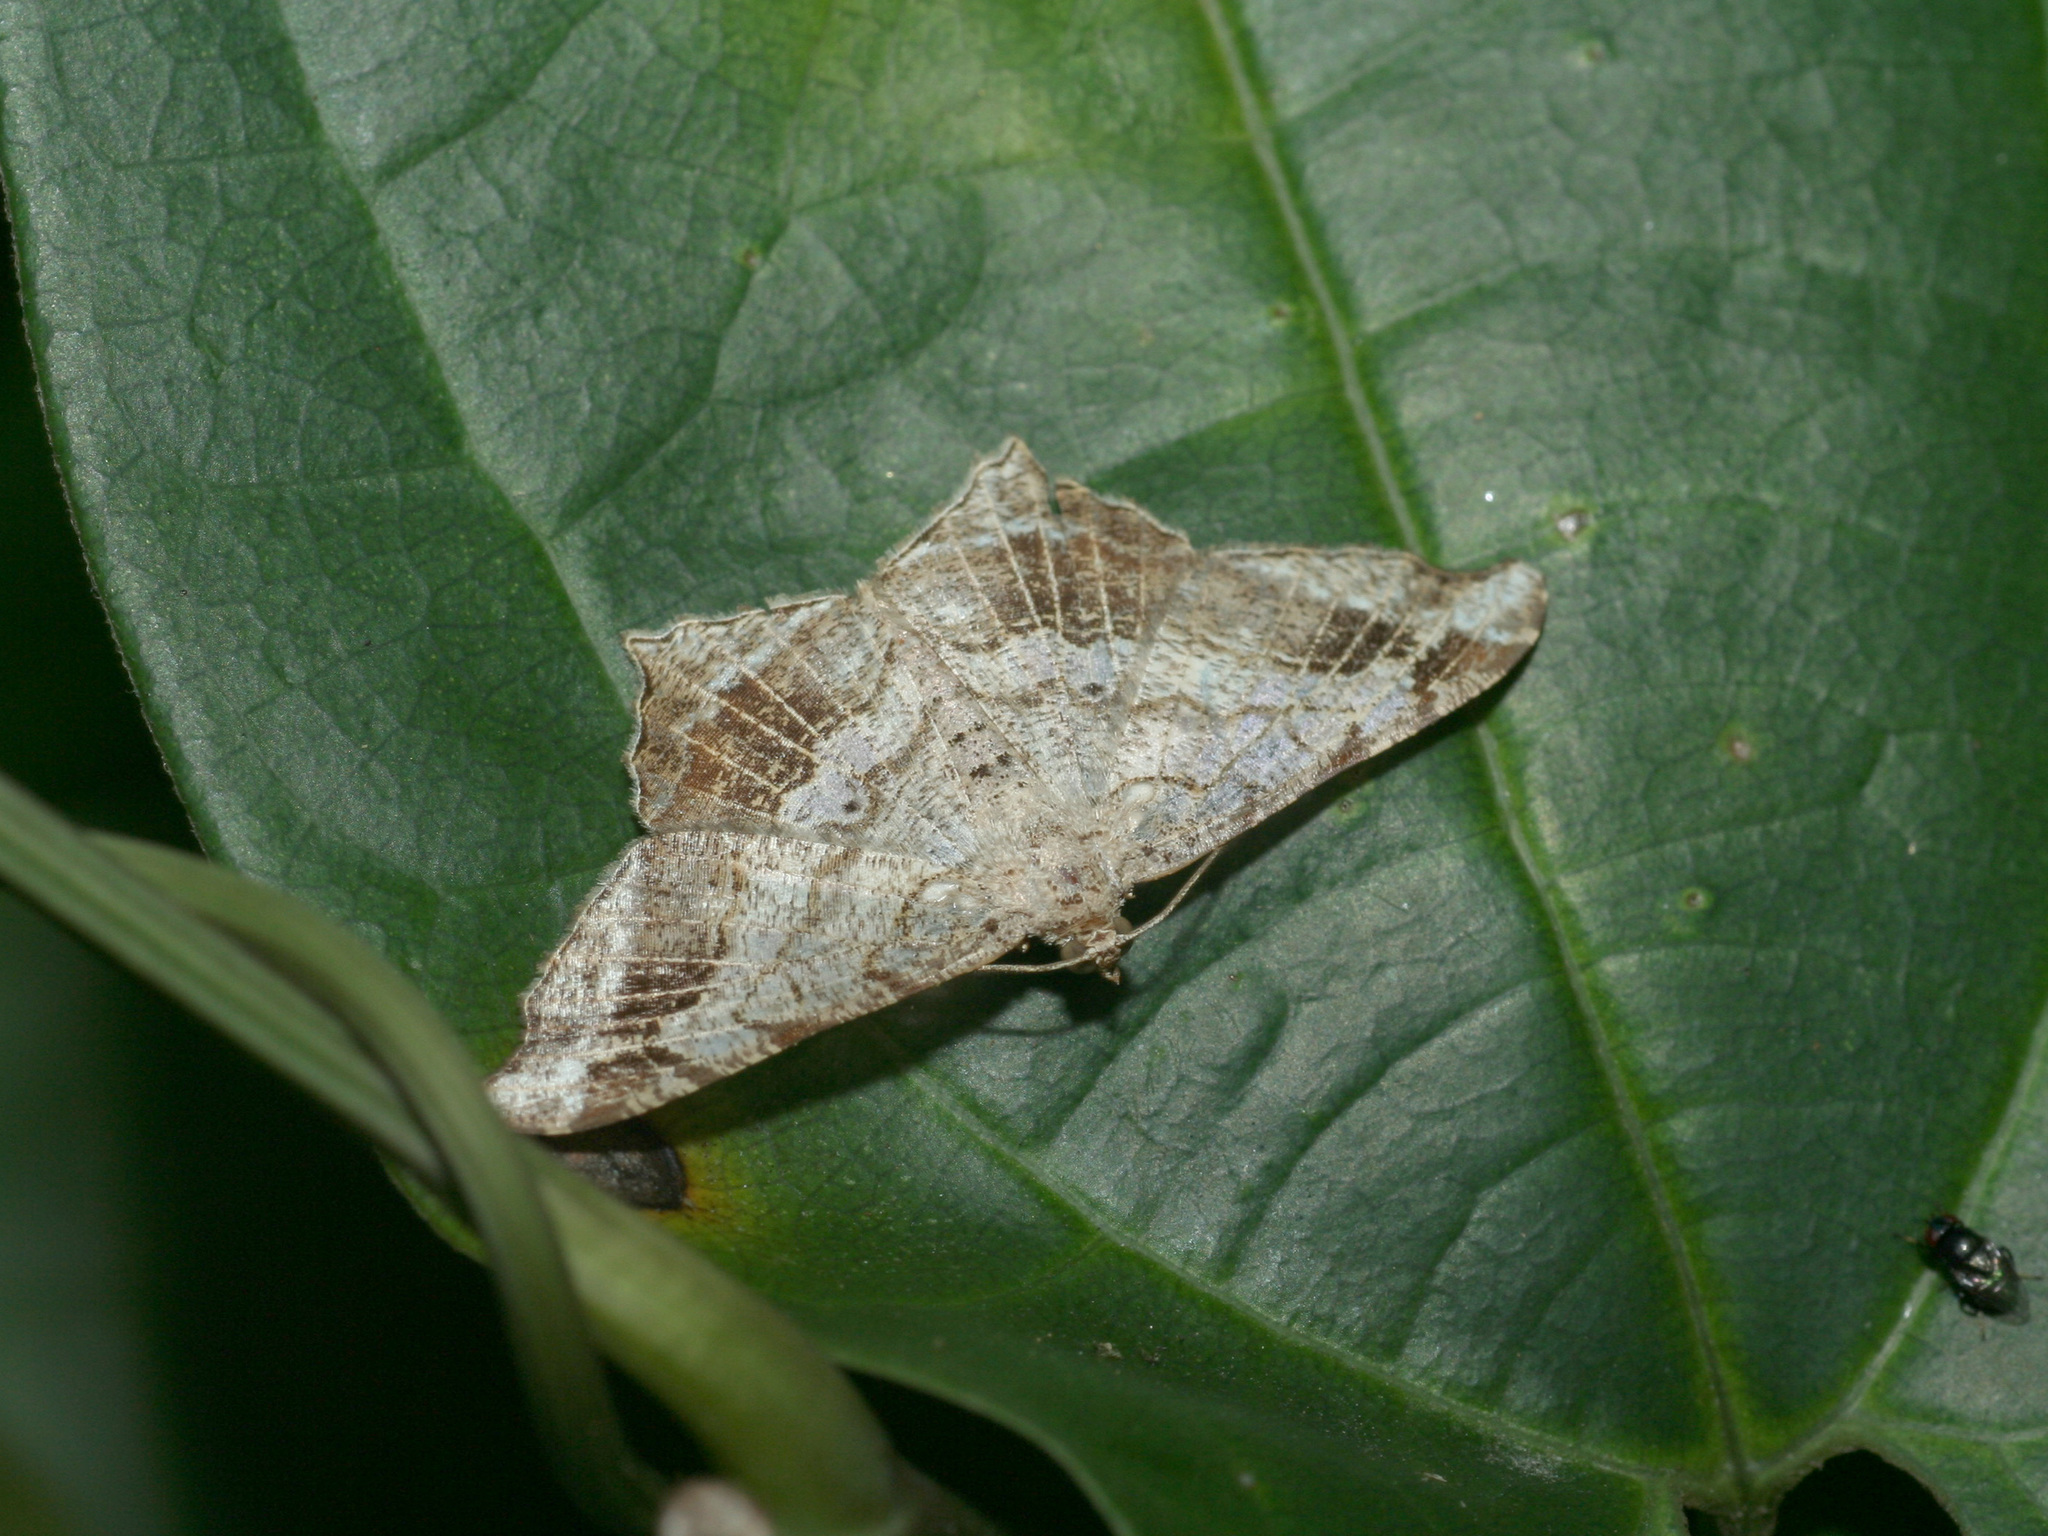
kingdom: Animalia
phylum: Arthropoda
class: Insecta
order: Lepidoptera
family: Geometridae
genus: Chiasmia
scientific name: Chiasmia emersaria
